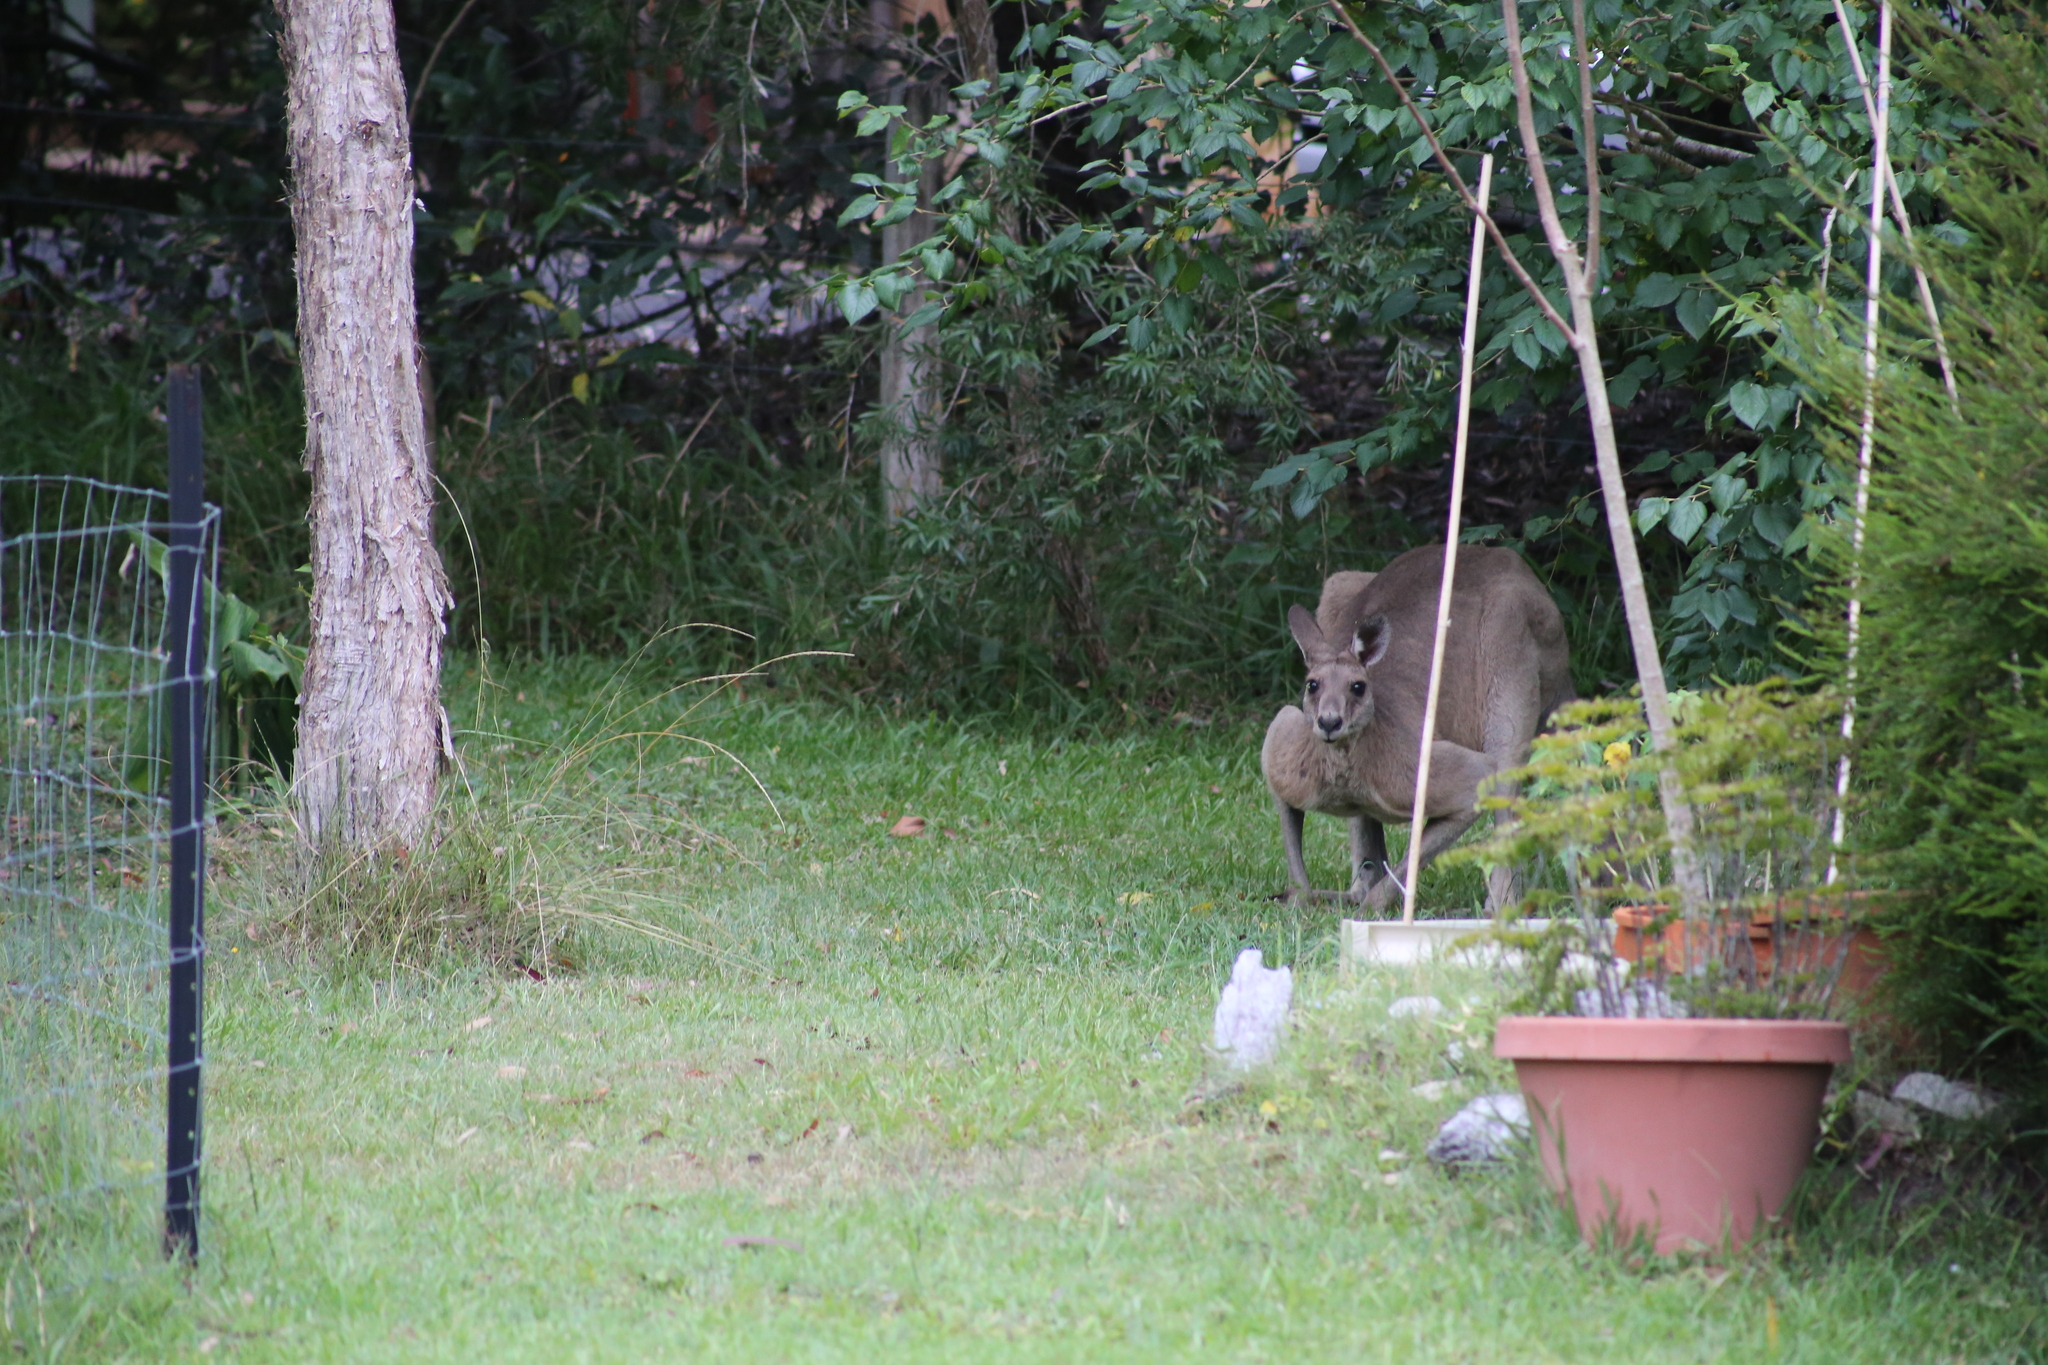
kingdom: Animalia
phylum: Chordata
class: Mammalia
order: Diprotodontia
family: Macropodidae
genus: Macropus
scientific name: Macropus giganteus
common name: Eastern grey kangaroo
